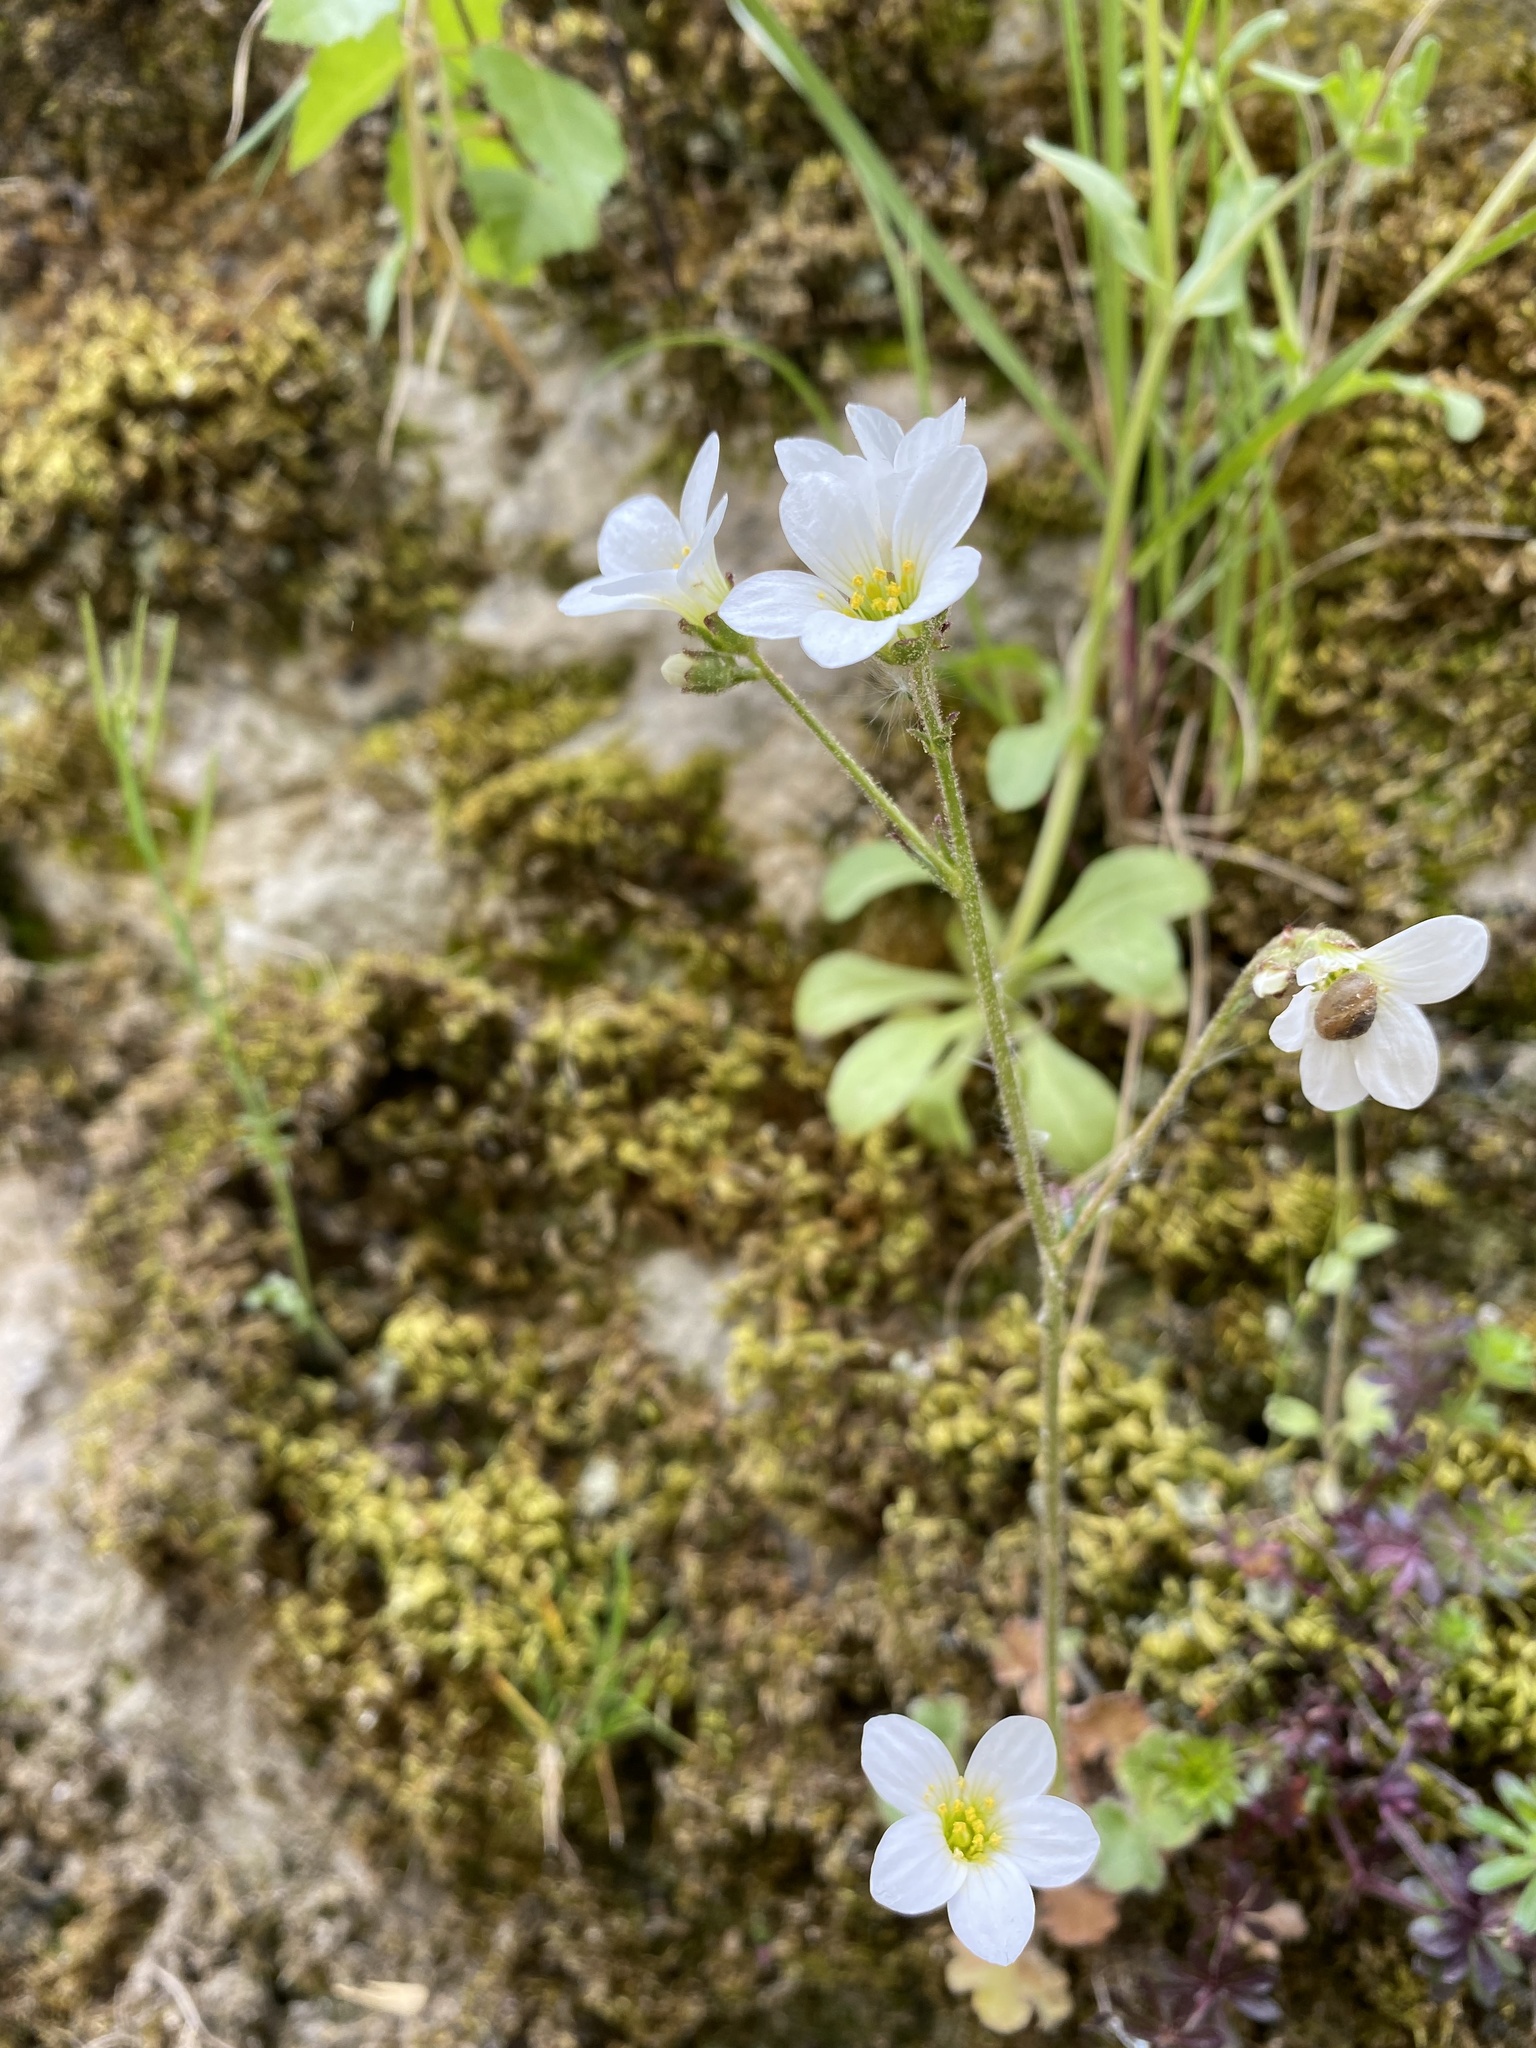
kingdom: Plantae
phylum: Tracheophyta
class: Magnoliopsida
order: Saxifragales
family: Saxifragaceae
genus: Saxifraga
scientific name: Saxifraga granulata
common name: Meadow saxifrage
